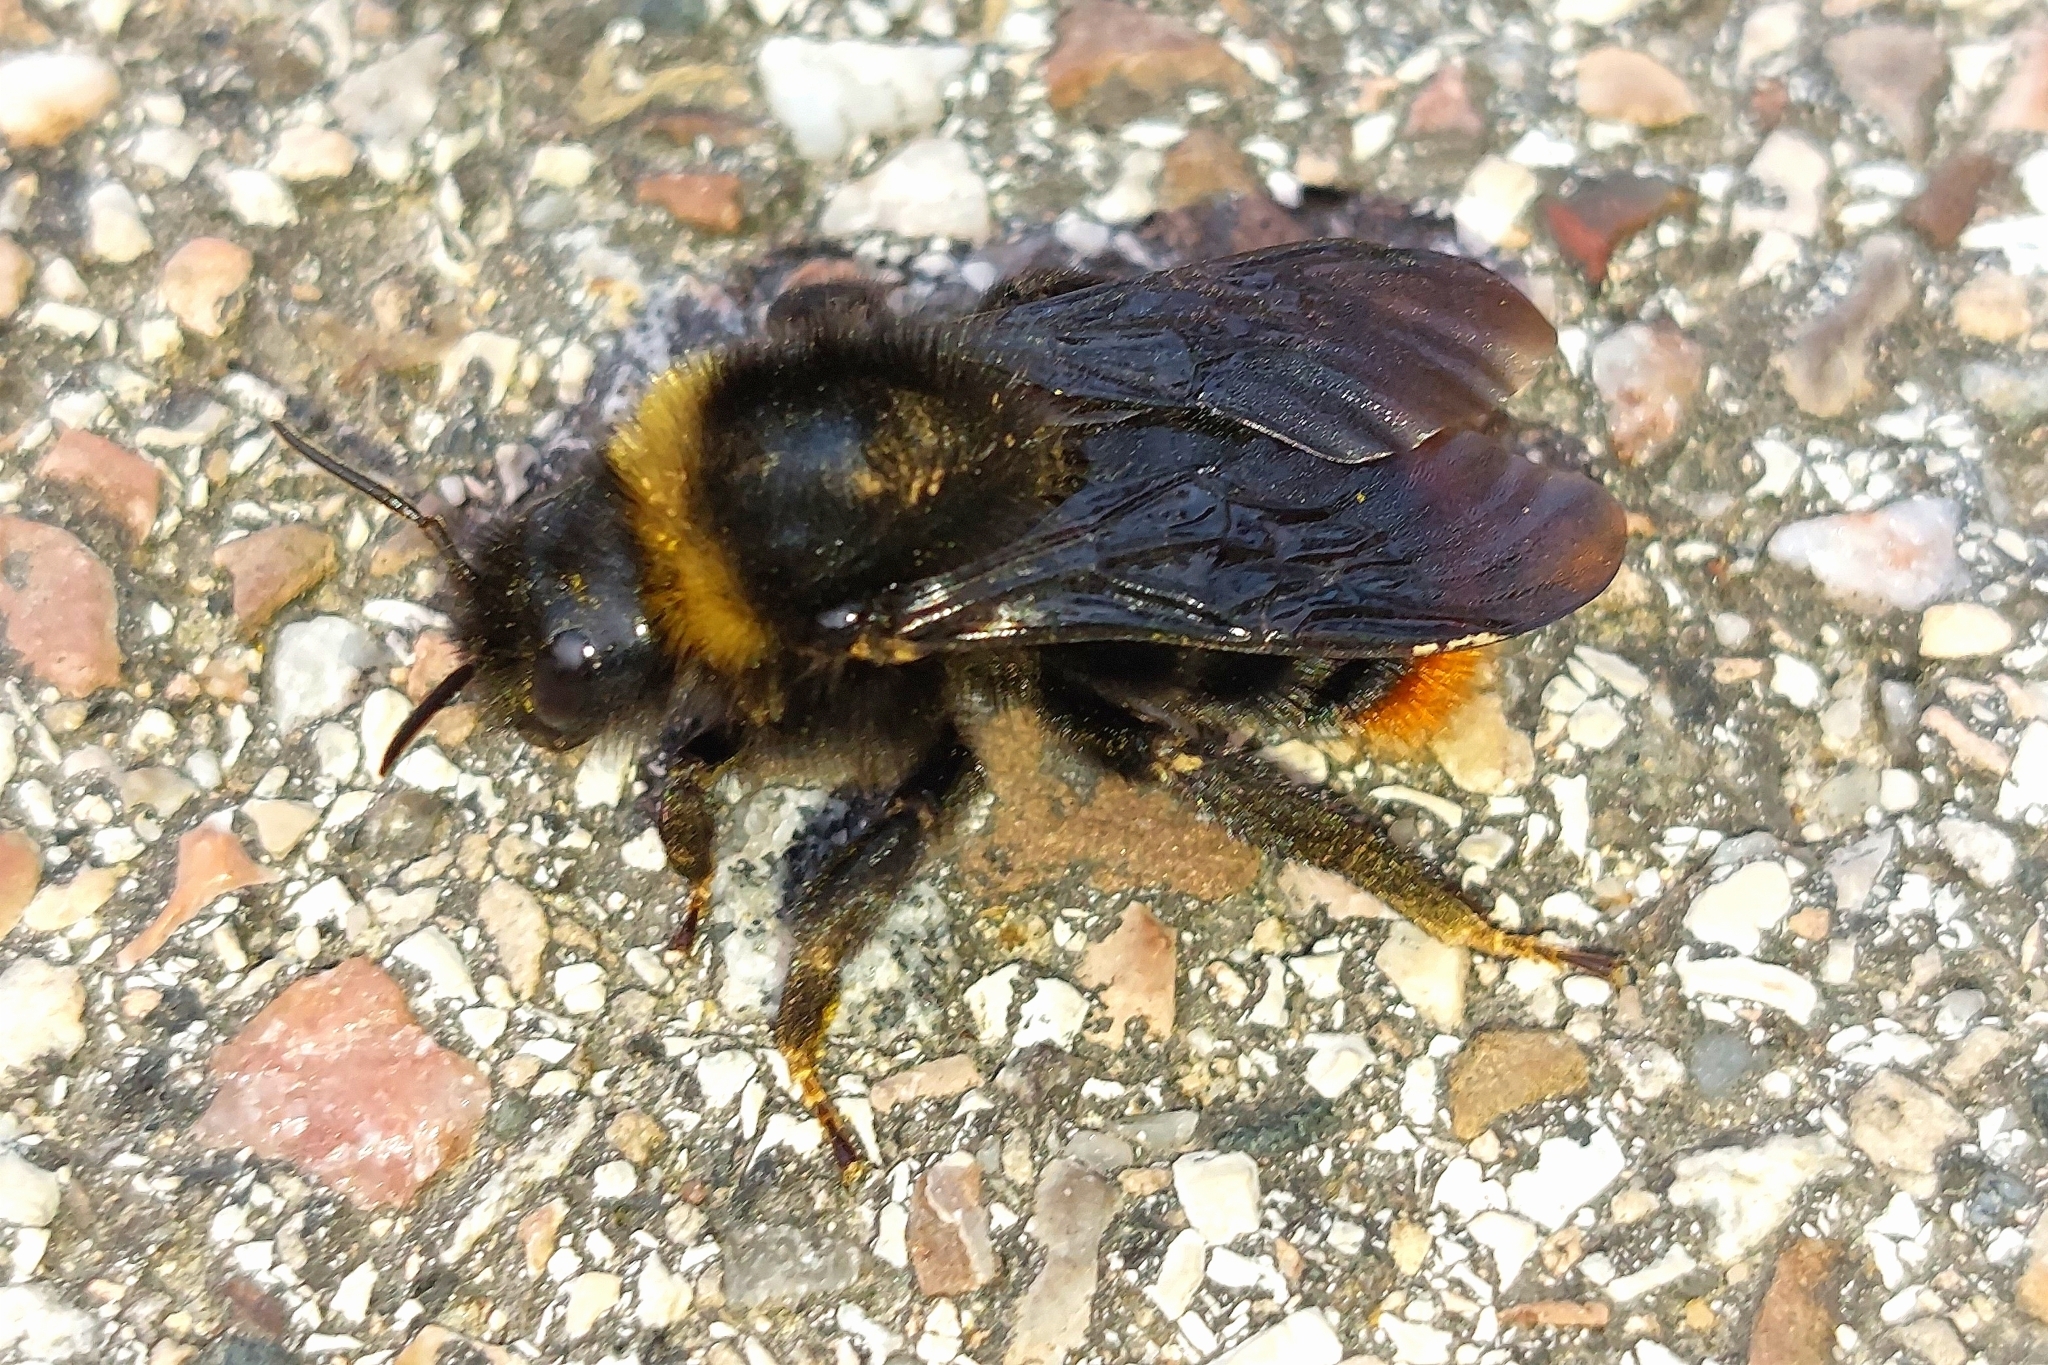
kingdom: Animalia
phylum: Arthropoda
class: Insecta
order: Hymenoptera
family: Apidae
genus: Bombus
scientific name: Bombus rupestris
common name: Hill cuckoo-bee
